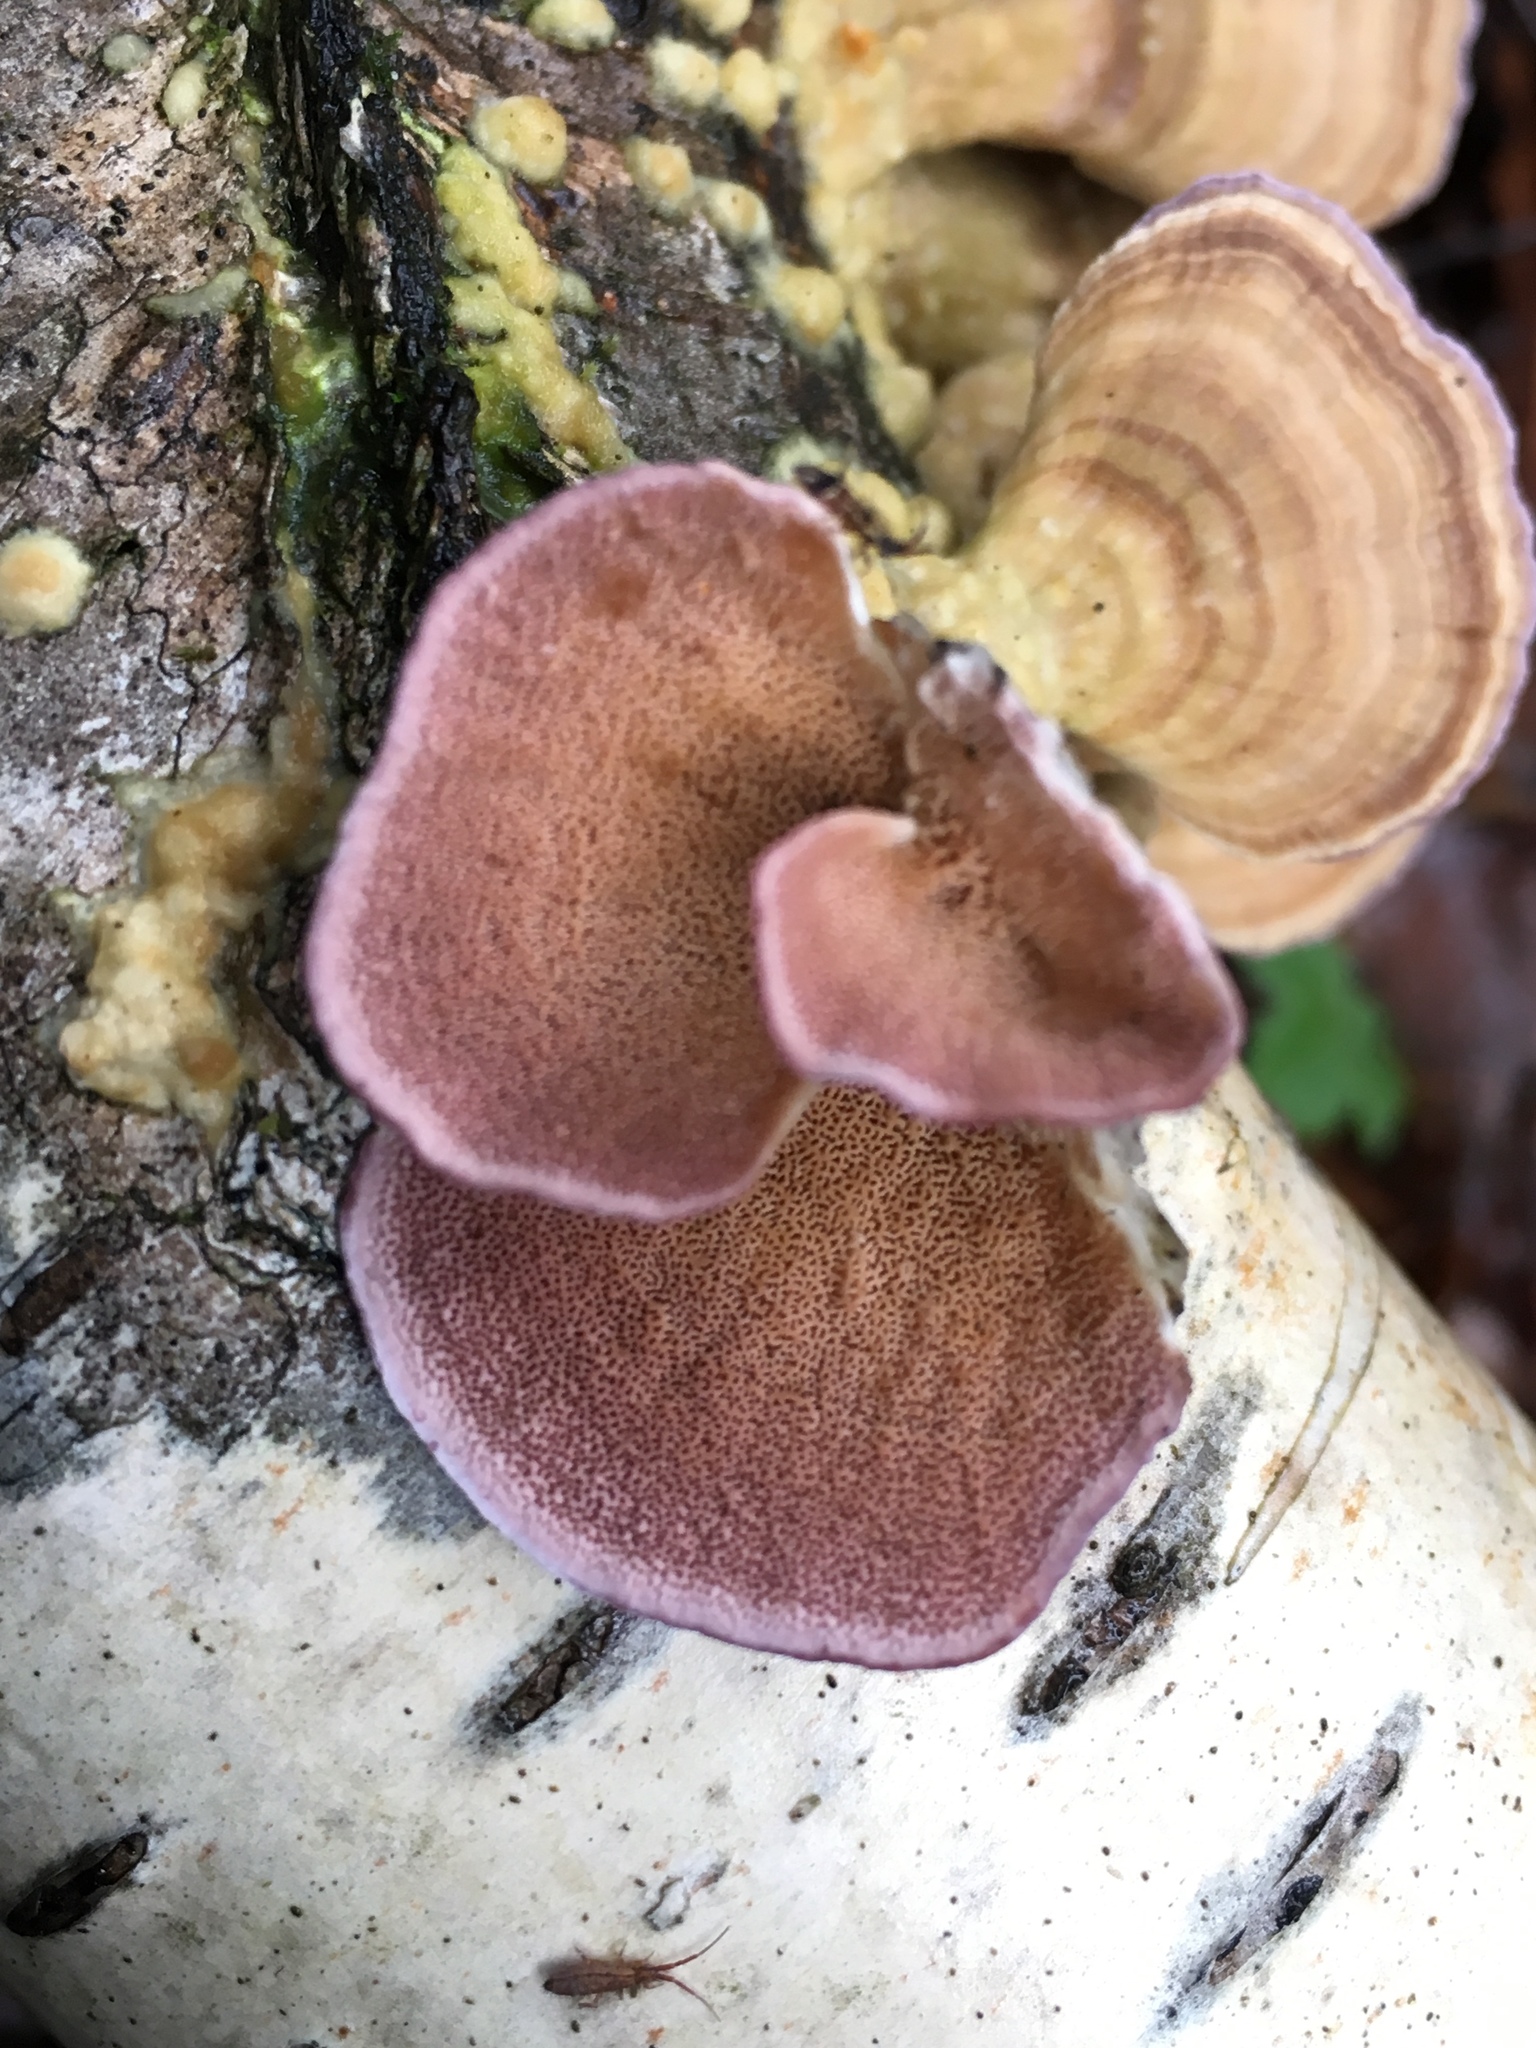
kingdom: Fungi
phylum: Basidiomycota
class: Agaricomycetes
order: Hymenochaetales
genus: Trichaptum
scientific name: Trichaptum biforme
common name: Violet-toothed polypore
